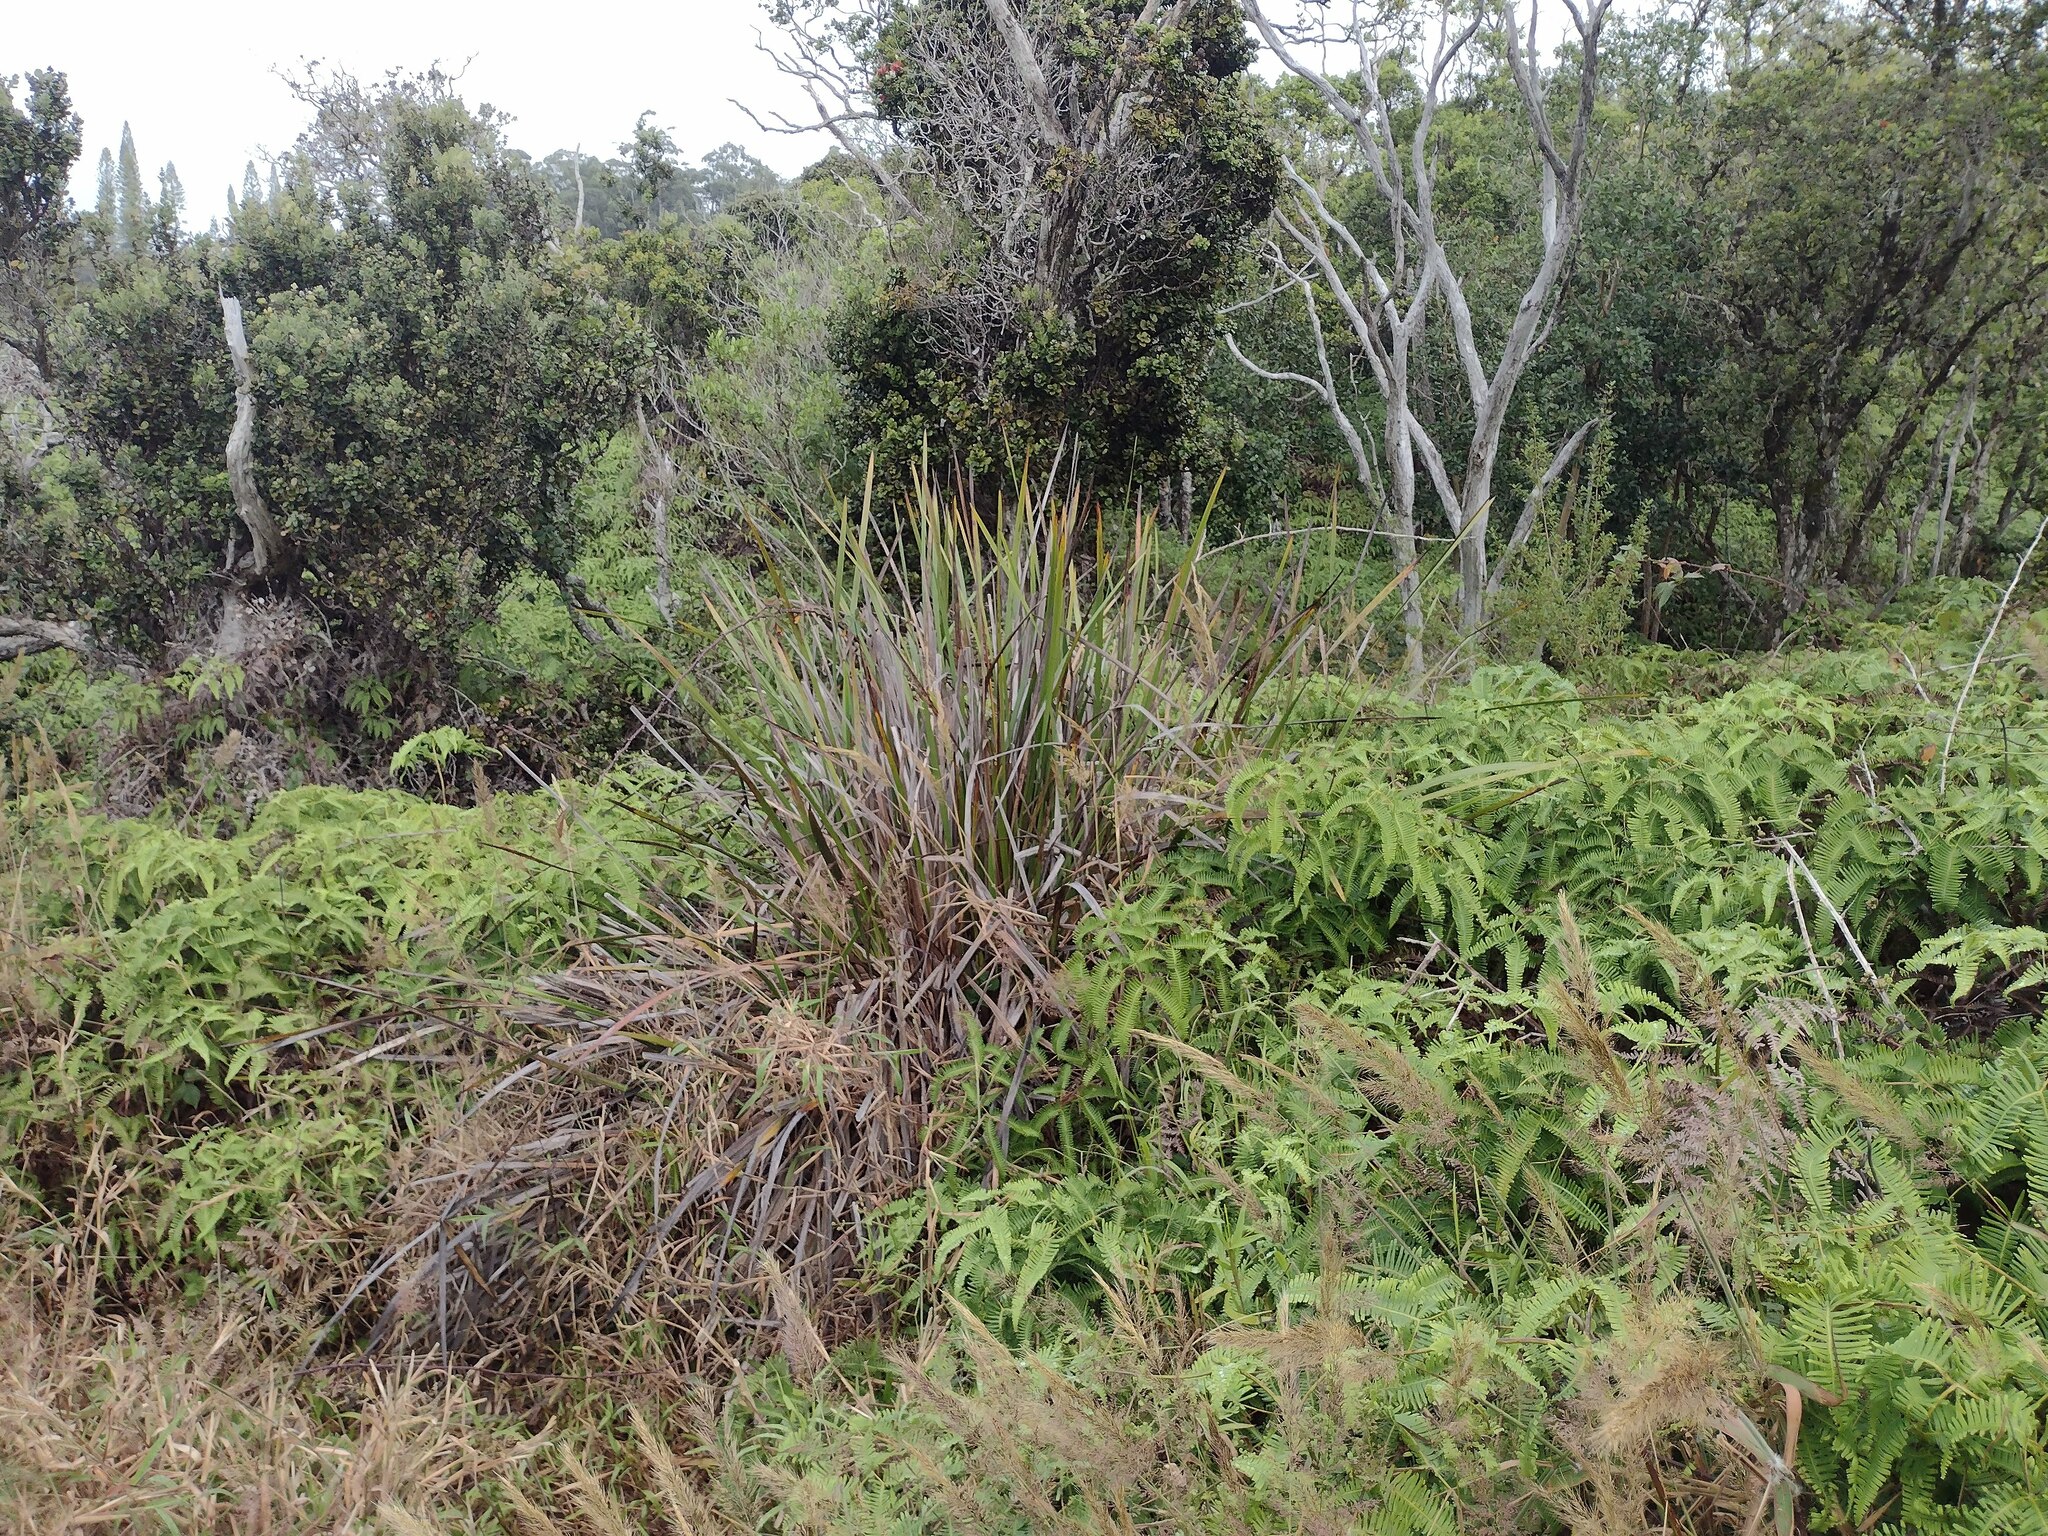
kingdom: Plantae
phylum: Tracheophyta
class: Liliopsida
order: Poales
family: Cyperaceae
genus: Machaerina
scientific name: Machaerina angustifolia
